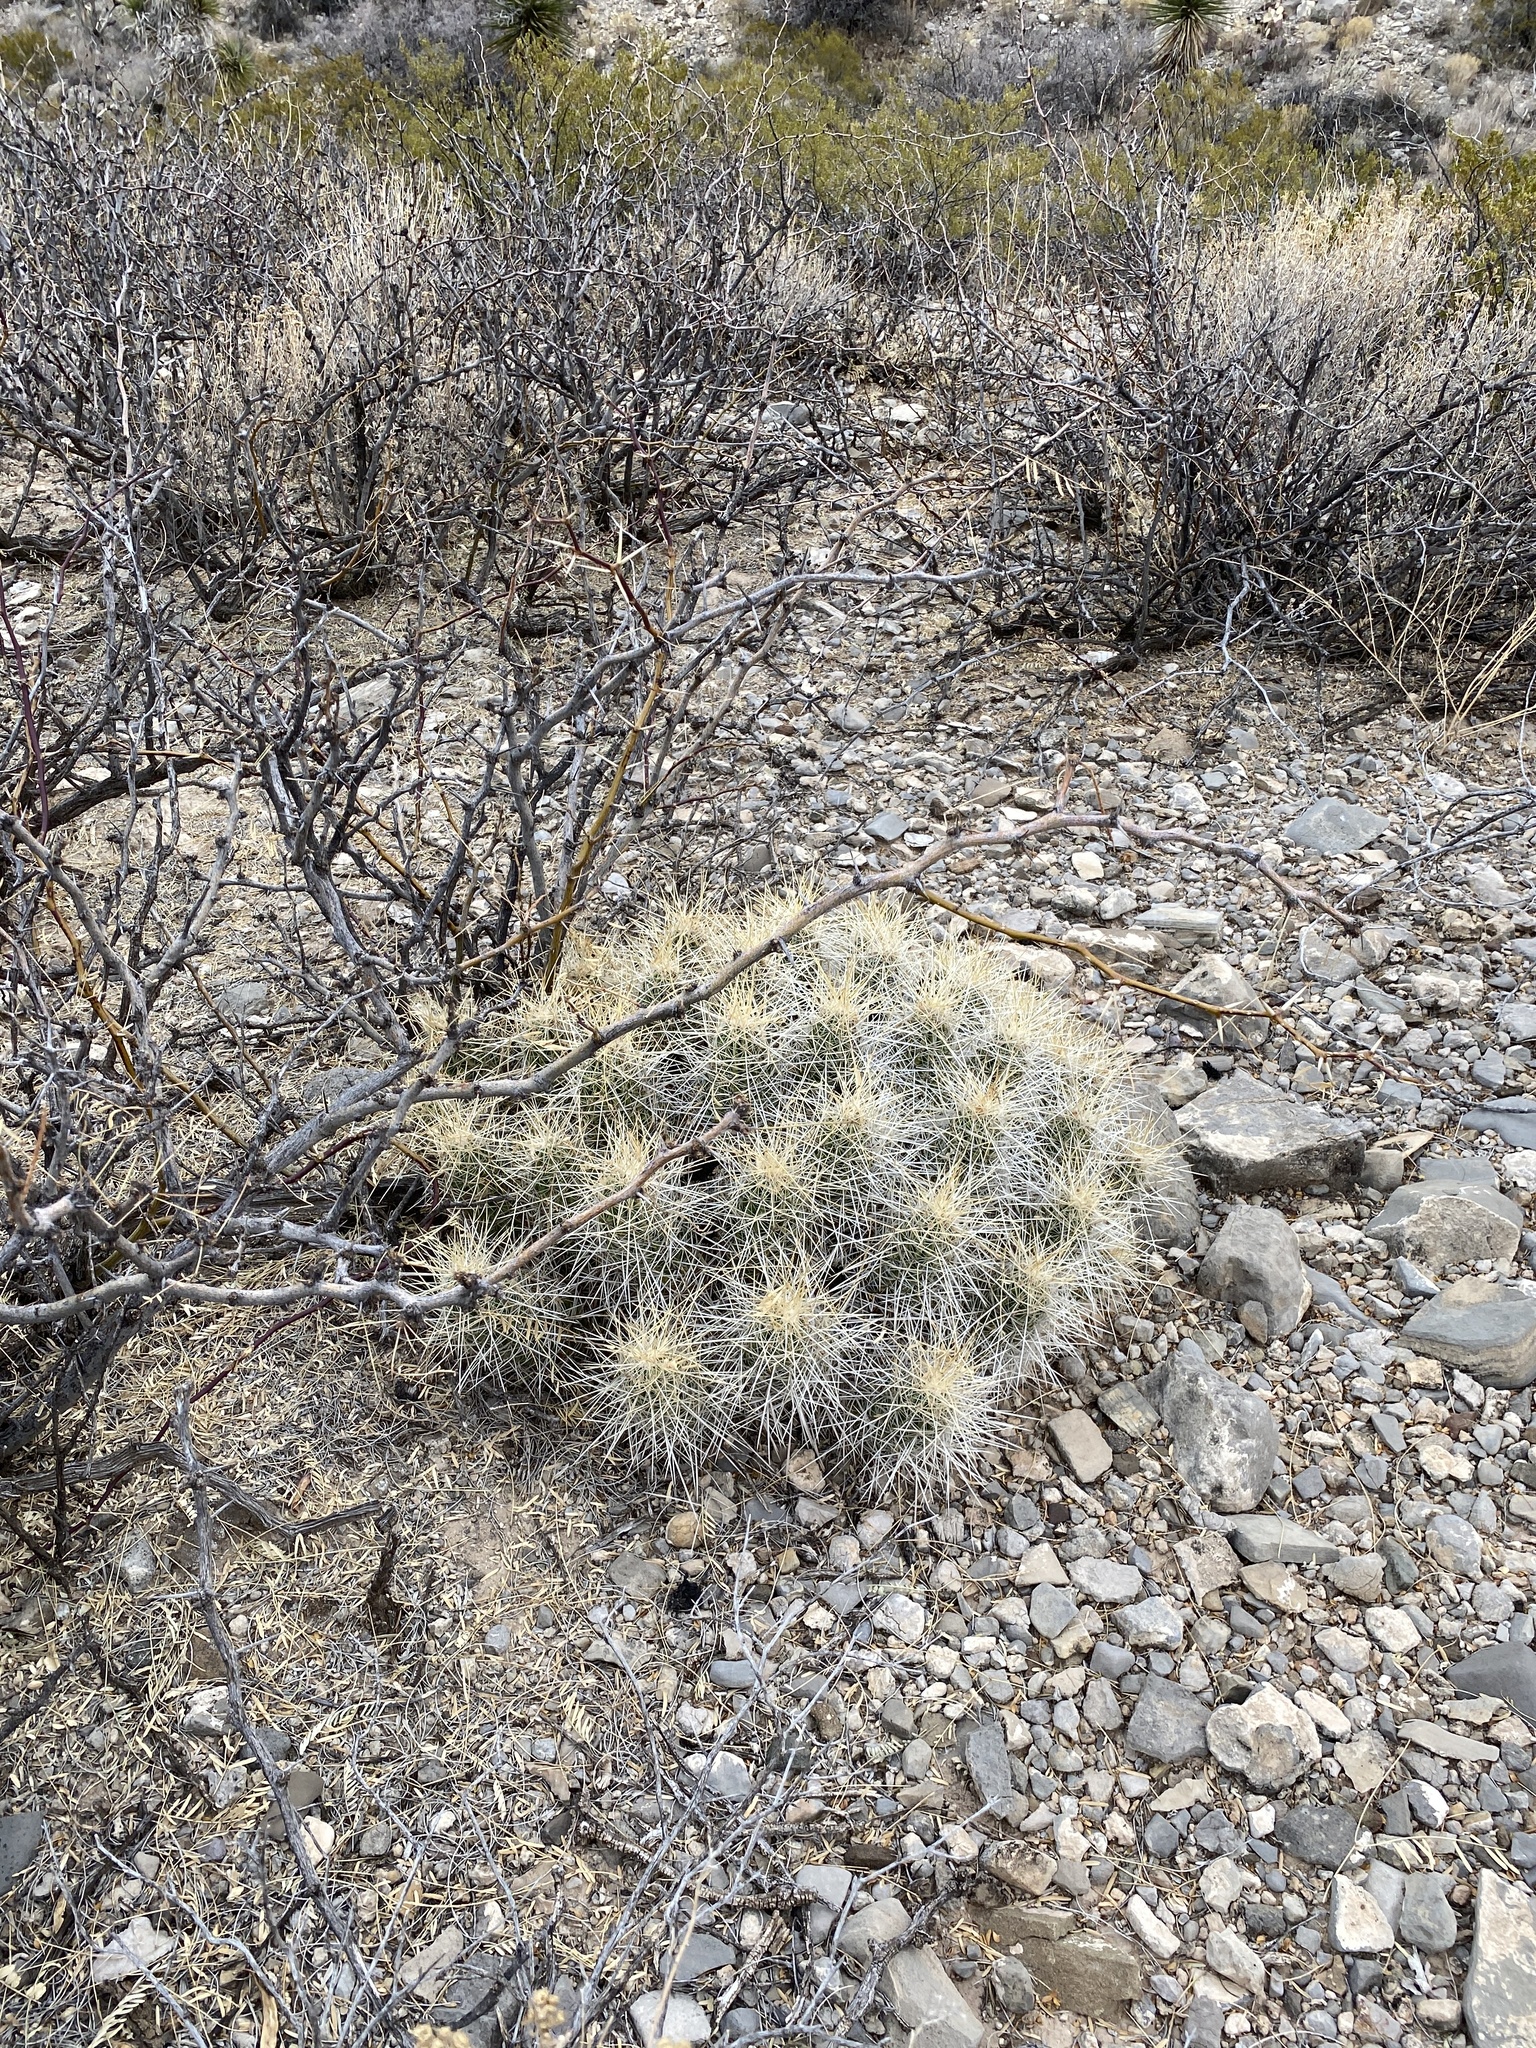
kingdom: Plantae
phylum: Tracheophyta
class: Magnoliopsida
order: Caryophyllales
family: Cactaceae
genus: Echinocereus
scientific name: Echinocereus stramineus
